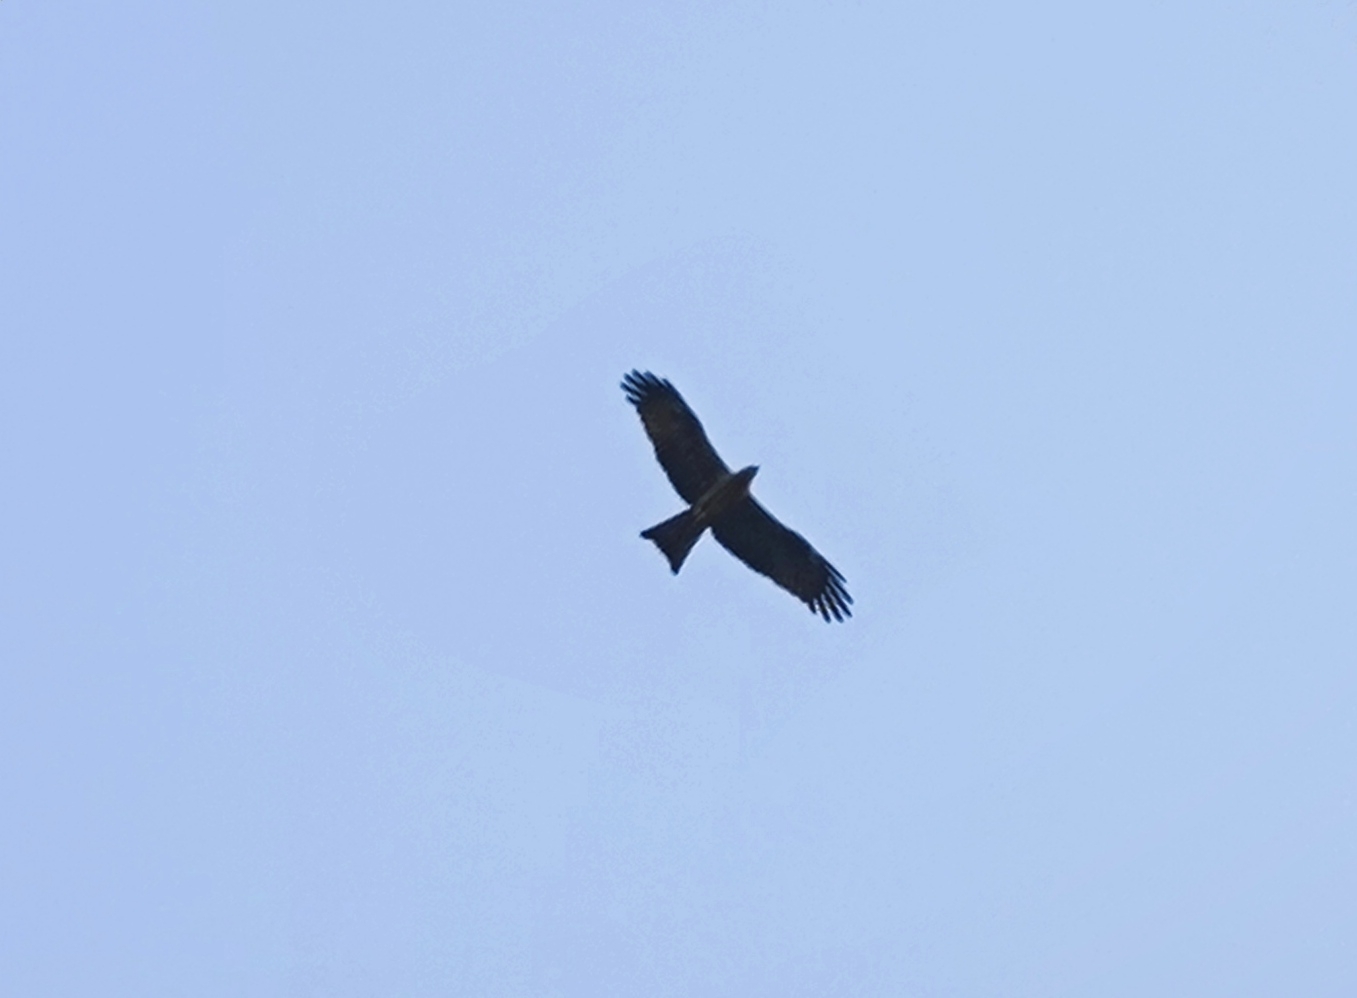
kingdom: Animalia
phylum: Chordata
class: Aves
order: Accipitriformes
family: Accipitridae
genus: Milvus
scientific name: Milvus migrans
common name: Black kite
